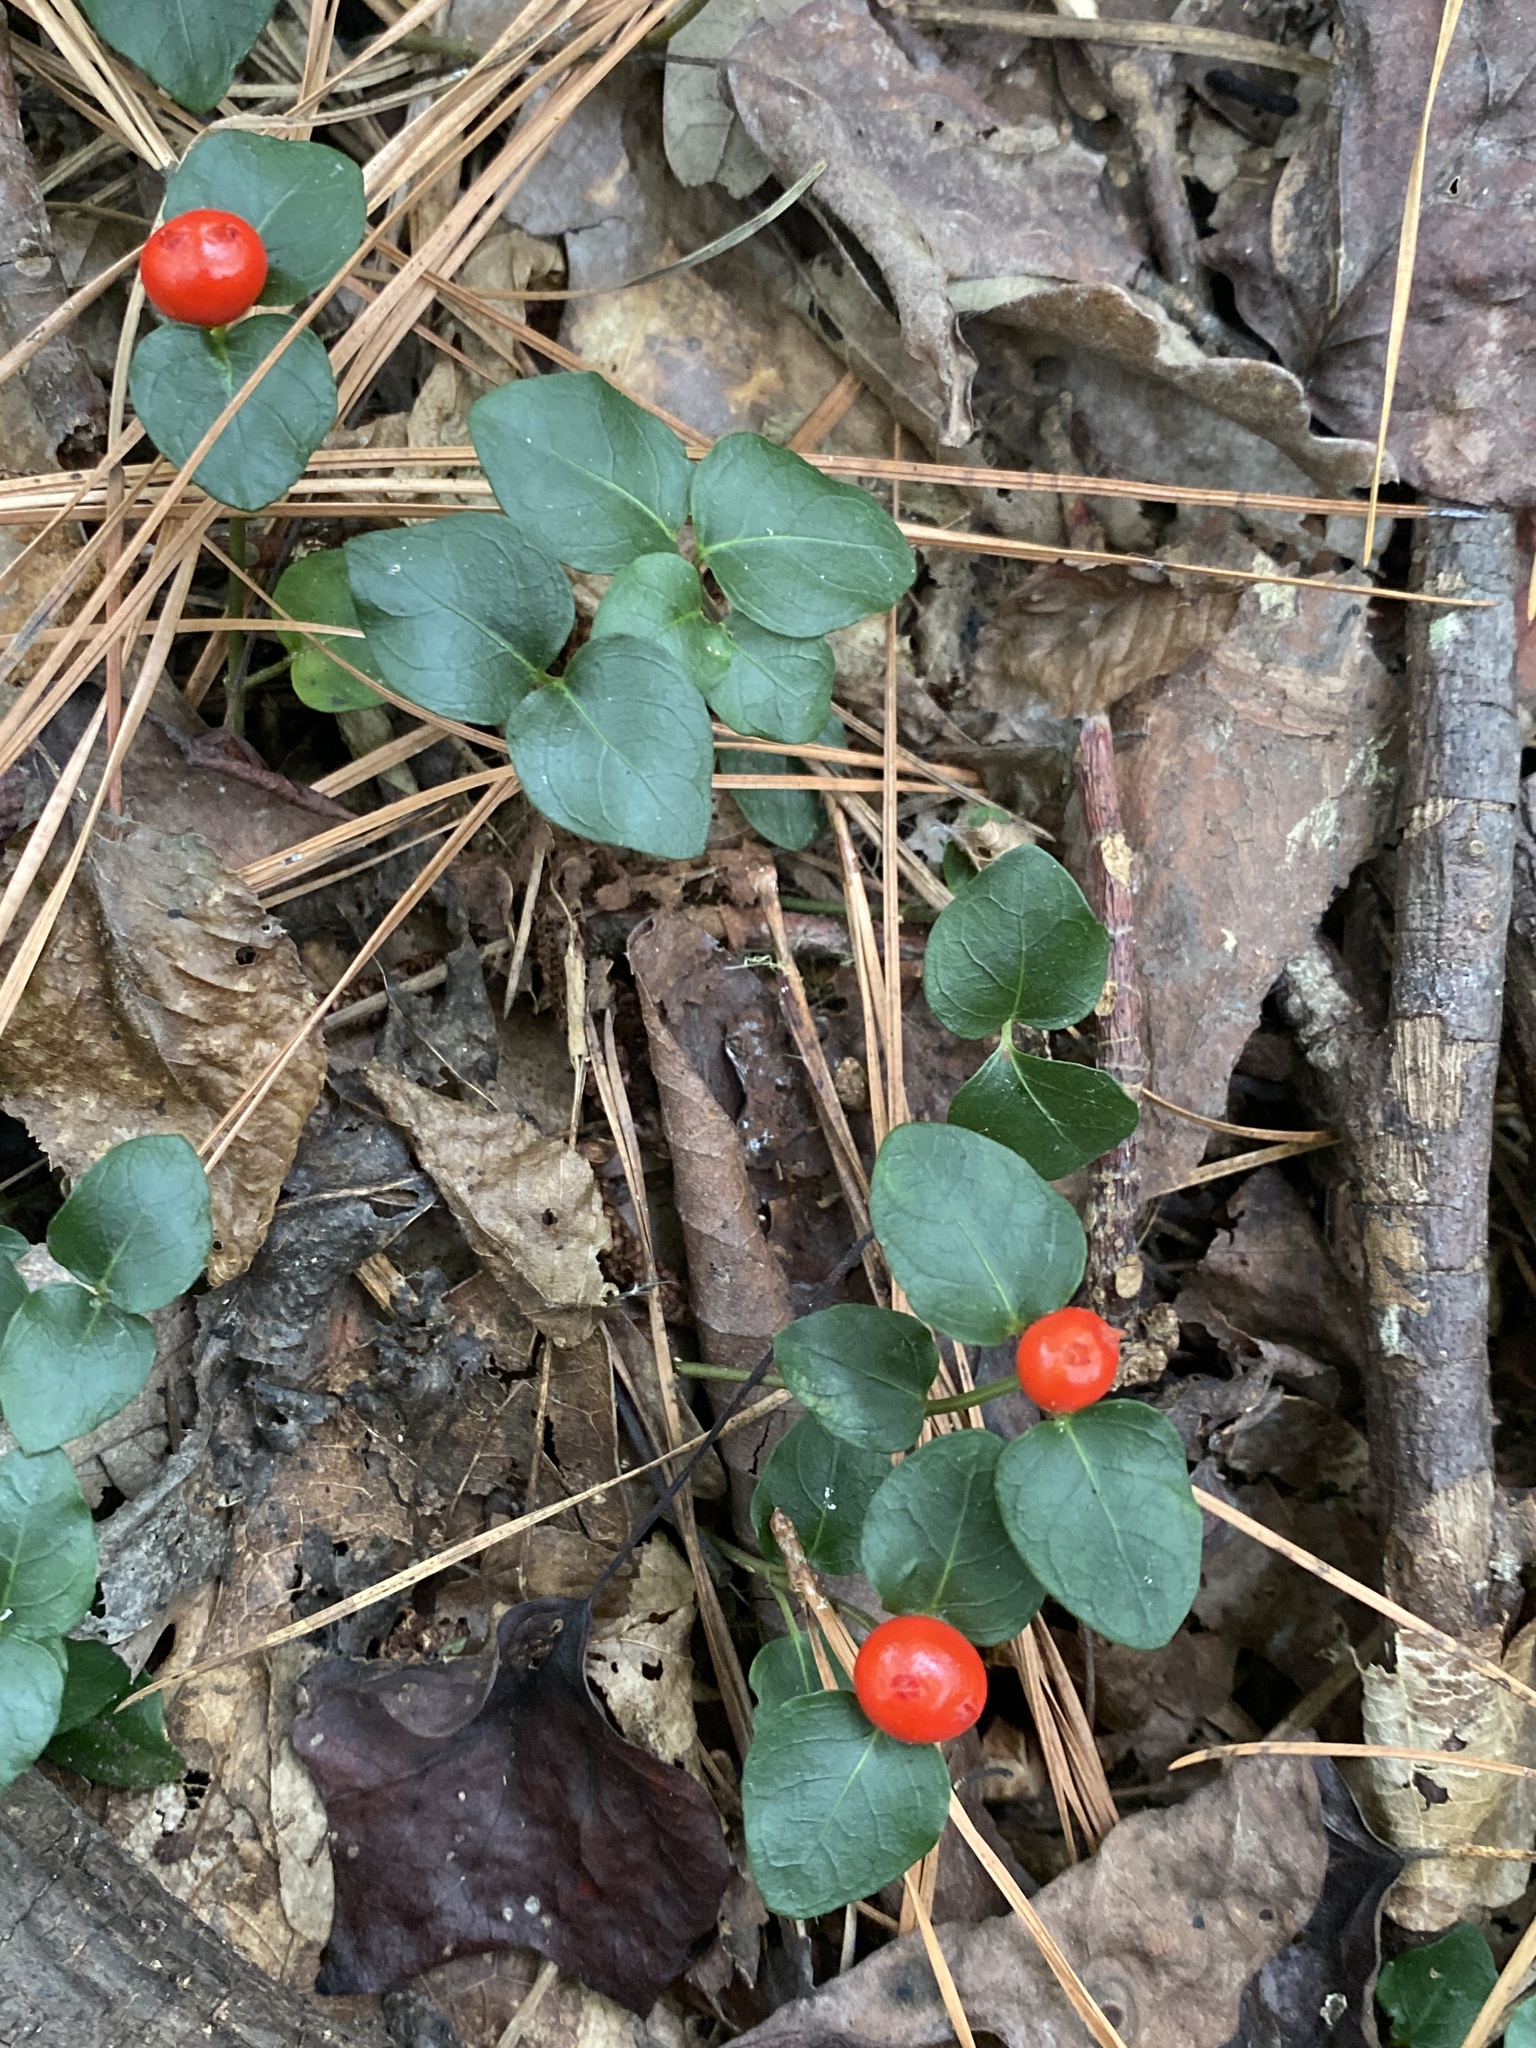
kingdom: Plantae
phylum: Tracheophyta
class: Magnoliopsida
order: Gentianales
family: Rubiaceae
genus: Mitchella
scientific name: Mitchella repens
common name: Partridge-berry
